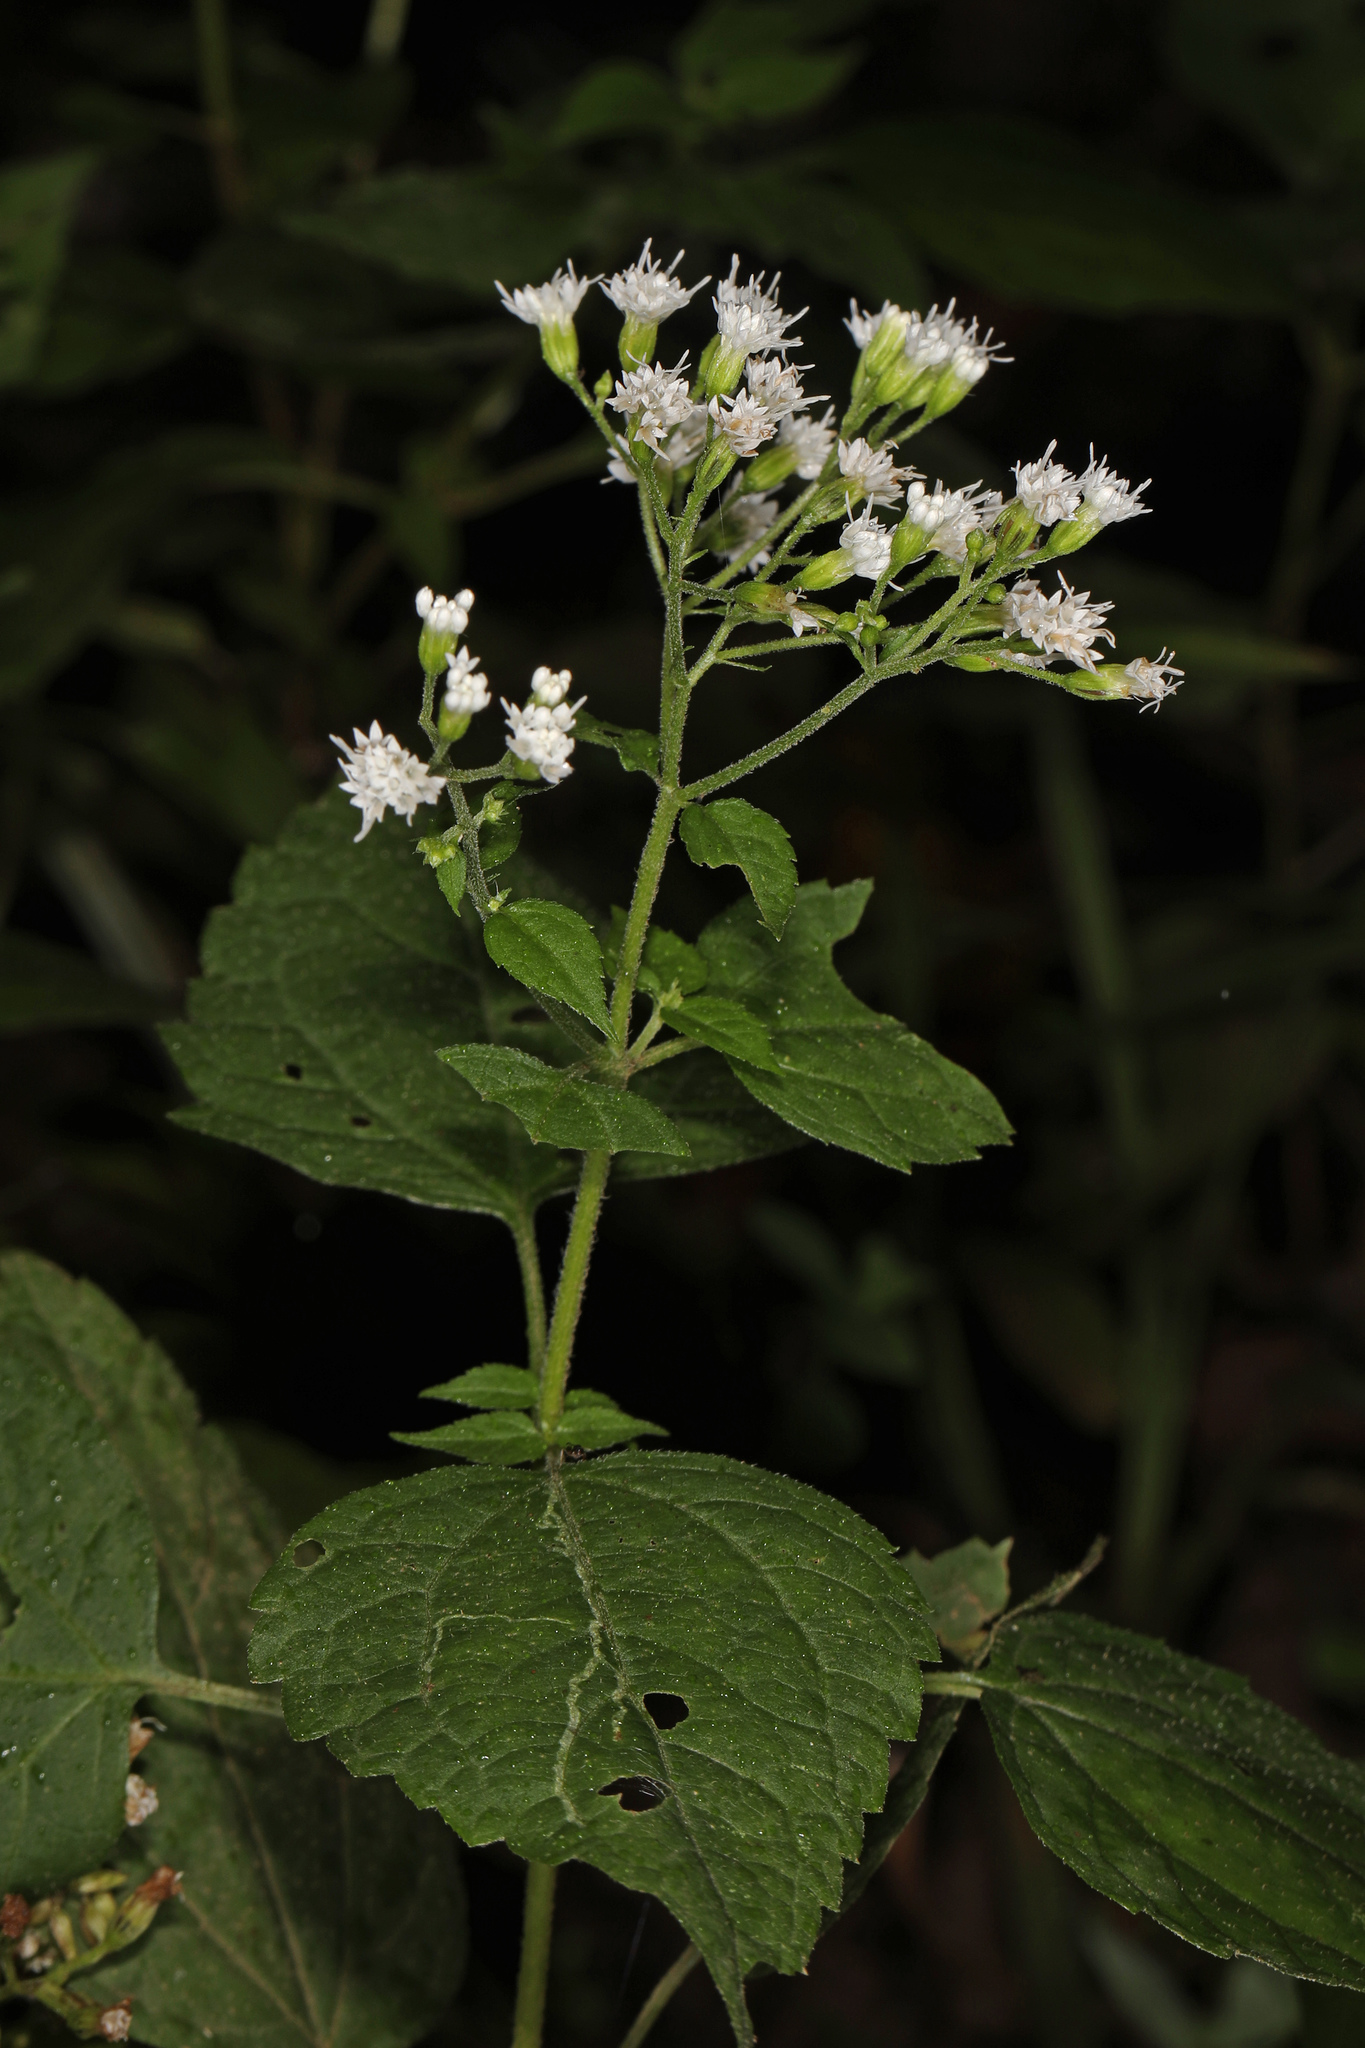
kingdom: Plantae
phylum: Tracheophyta
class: Magnoliopsida
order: Asterales
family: Asteraceae
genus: Ageratina
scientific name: Ageratina altissima
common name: White snakeroot
